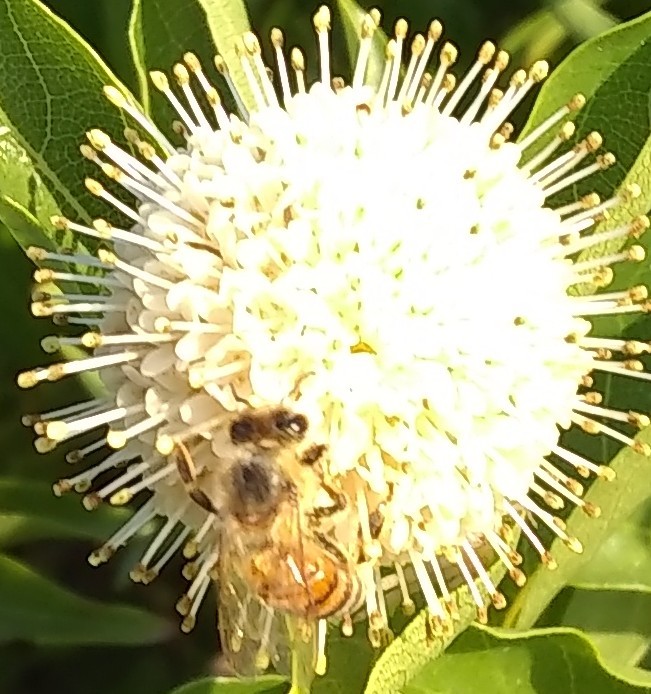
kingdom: Animalia
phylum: Arthropoda
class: Insecta
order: Hymenoptera
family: Apidae
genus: Apis
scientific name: Apis mellifera
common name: Honey bee
